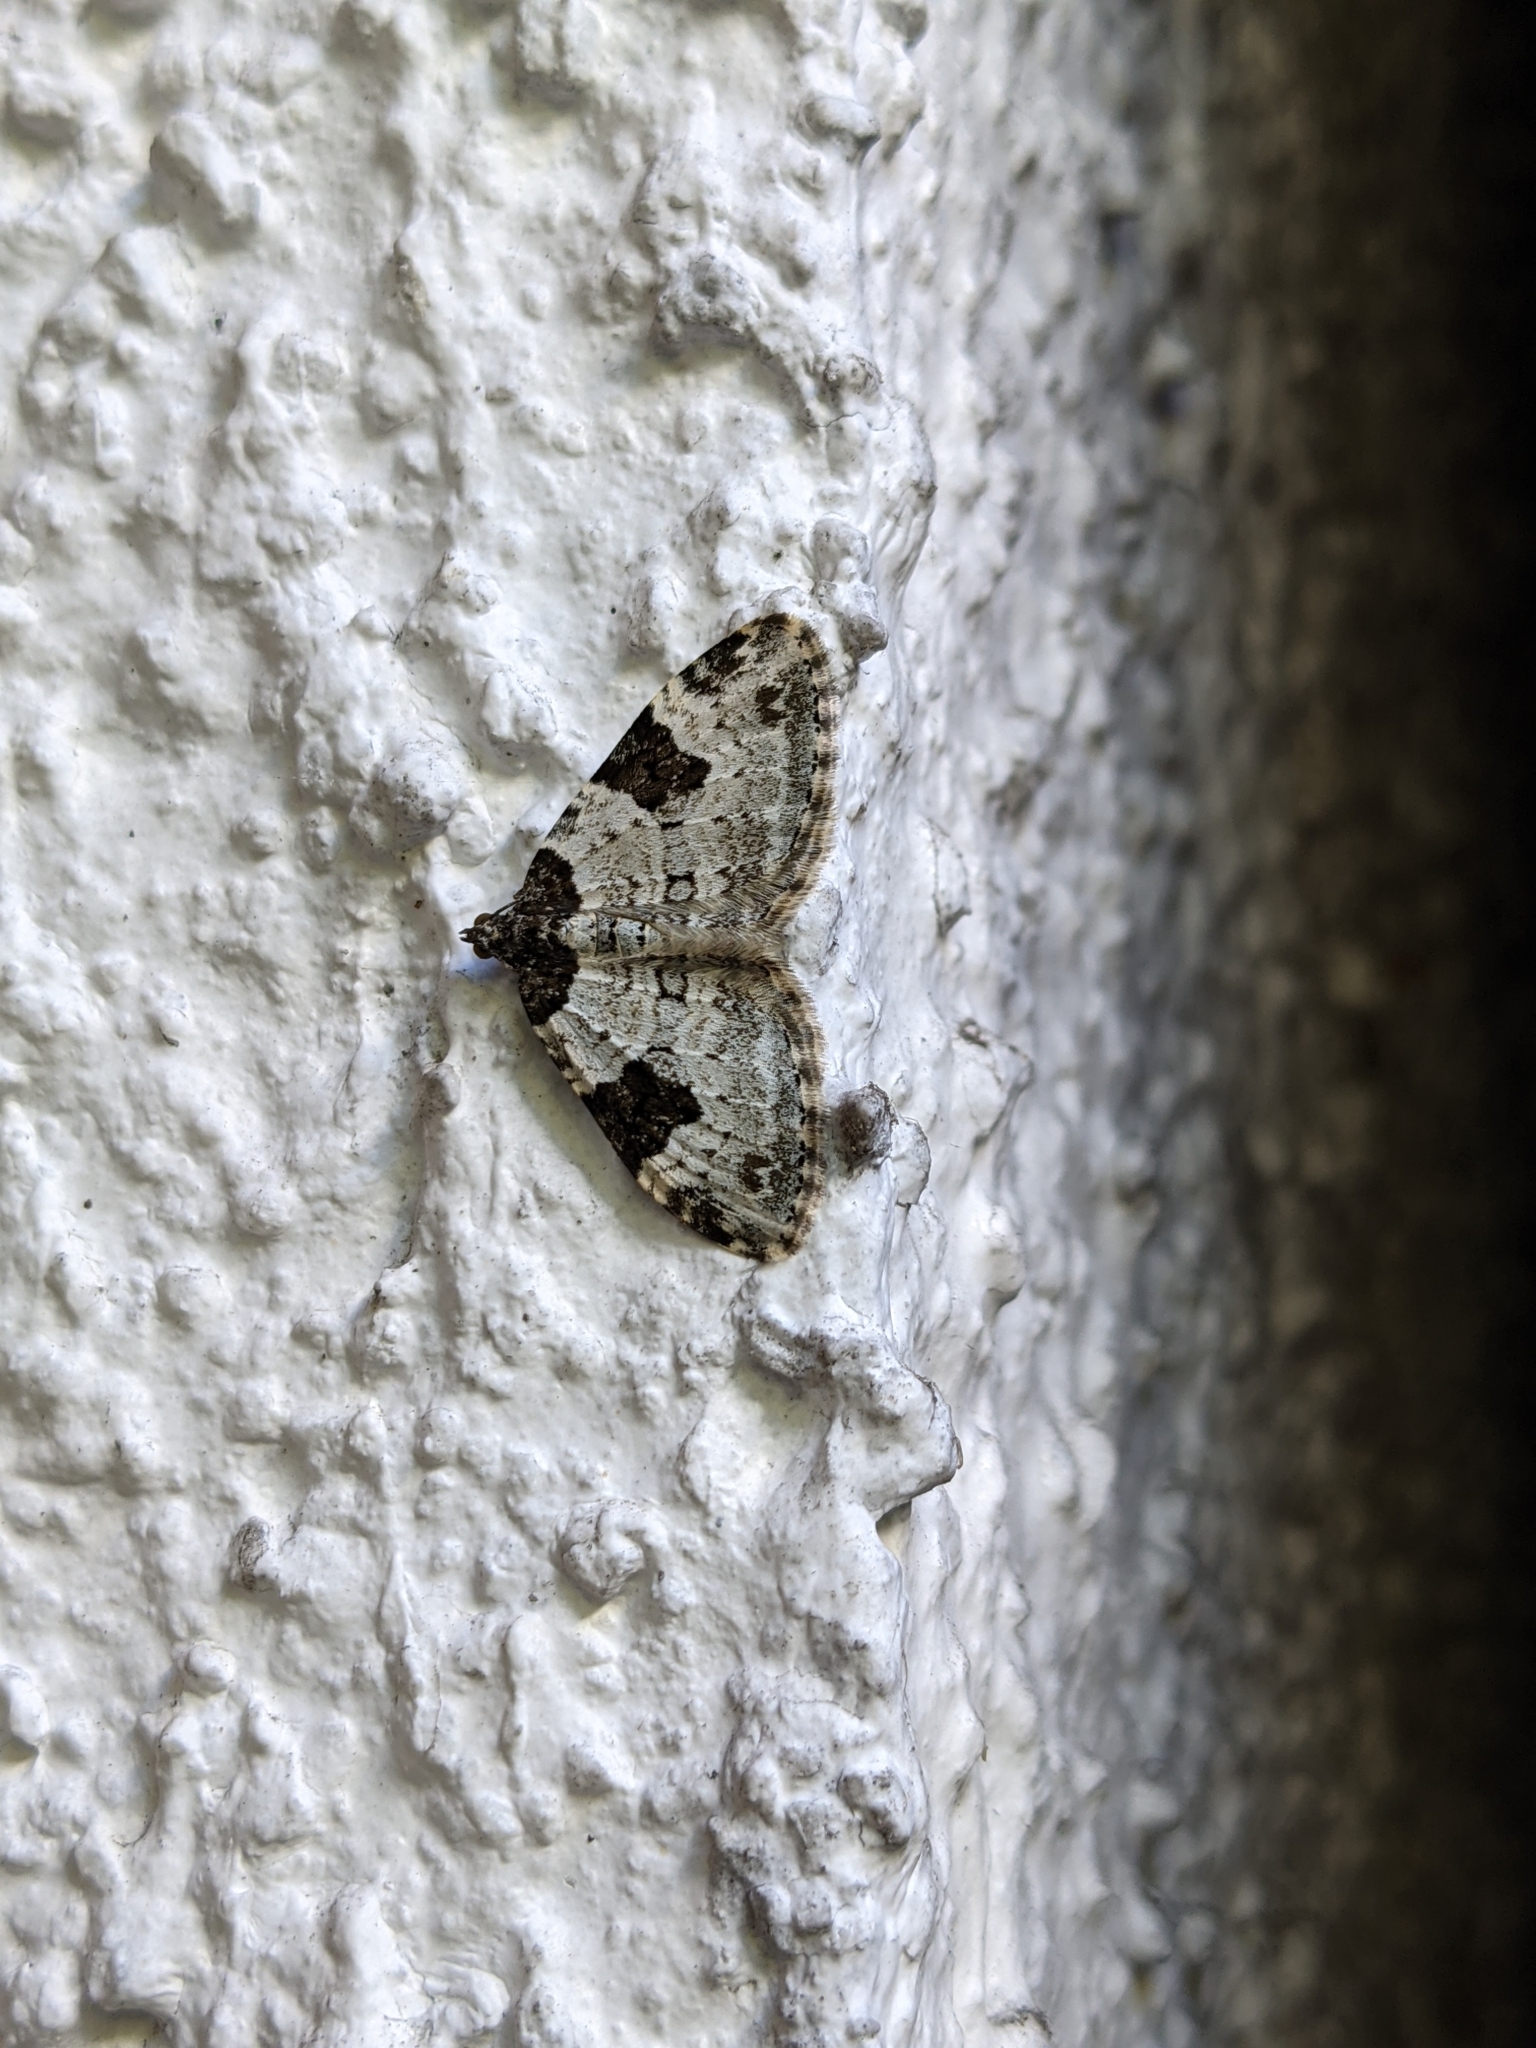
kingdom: Animalia
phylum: Arthropoda
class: Insecta
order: Lepidoptera
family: Geometridae
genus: Xanthorhoe
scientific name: Xanthorhoe fluctuata
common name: Garden carpet
